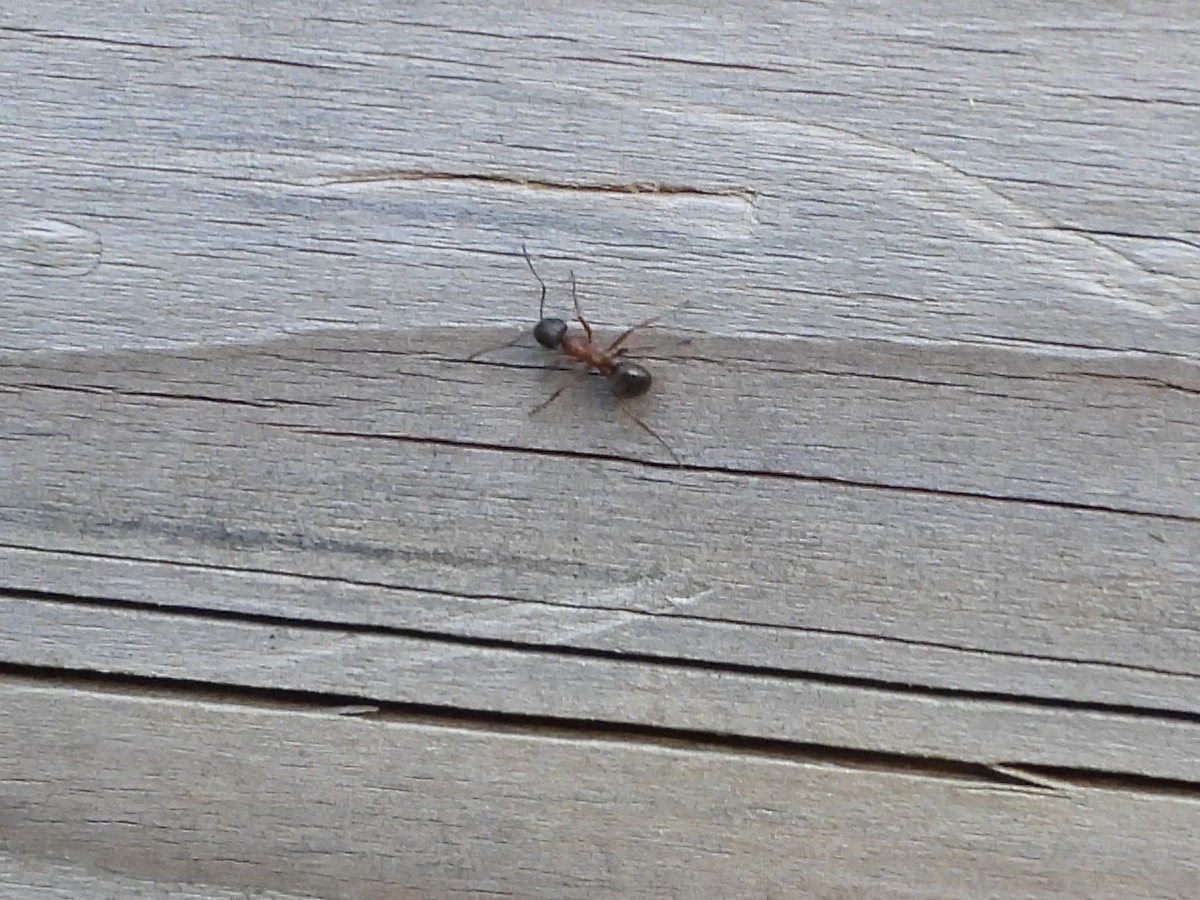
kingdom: Animalia
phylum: Arthropoda
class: Insecta
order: Hymenoptera
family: Formicidae
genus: Formica
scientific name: Formica neorufibarbis
